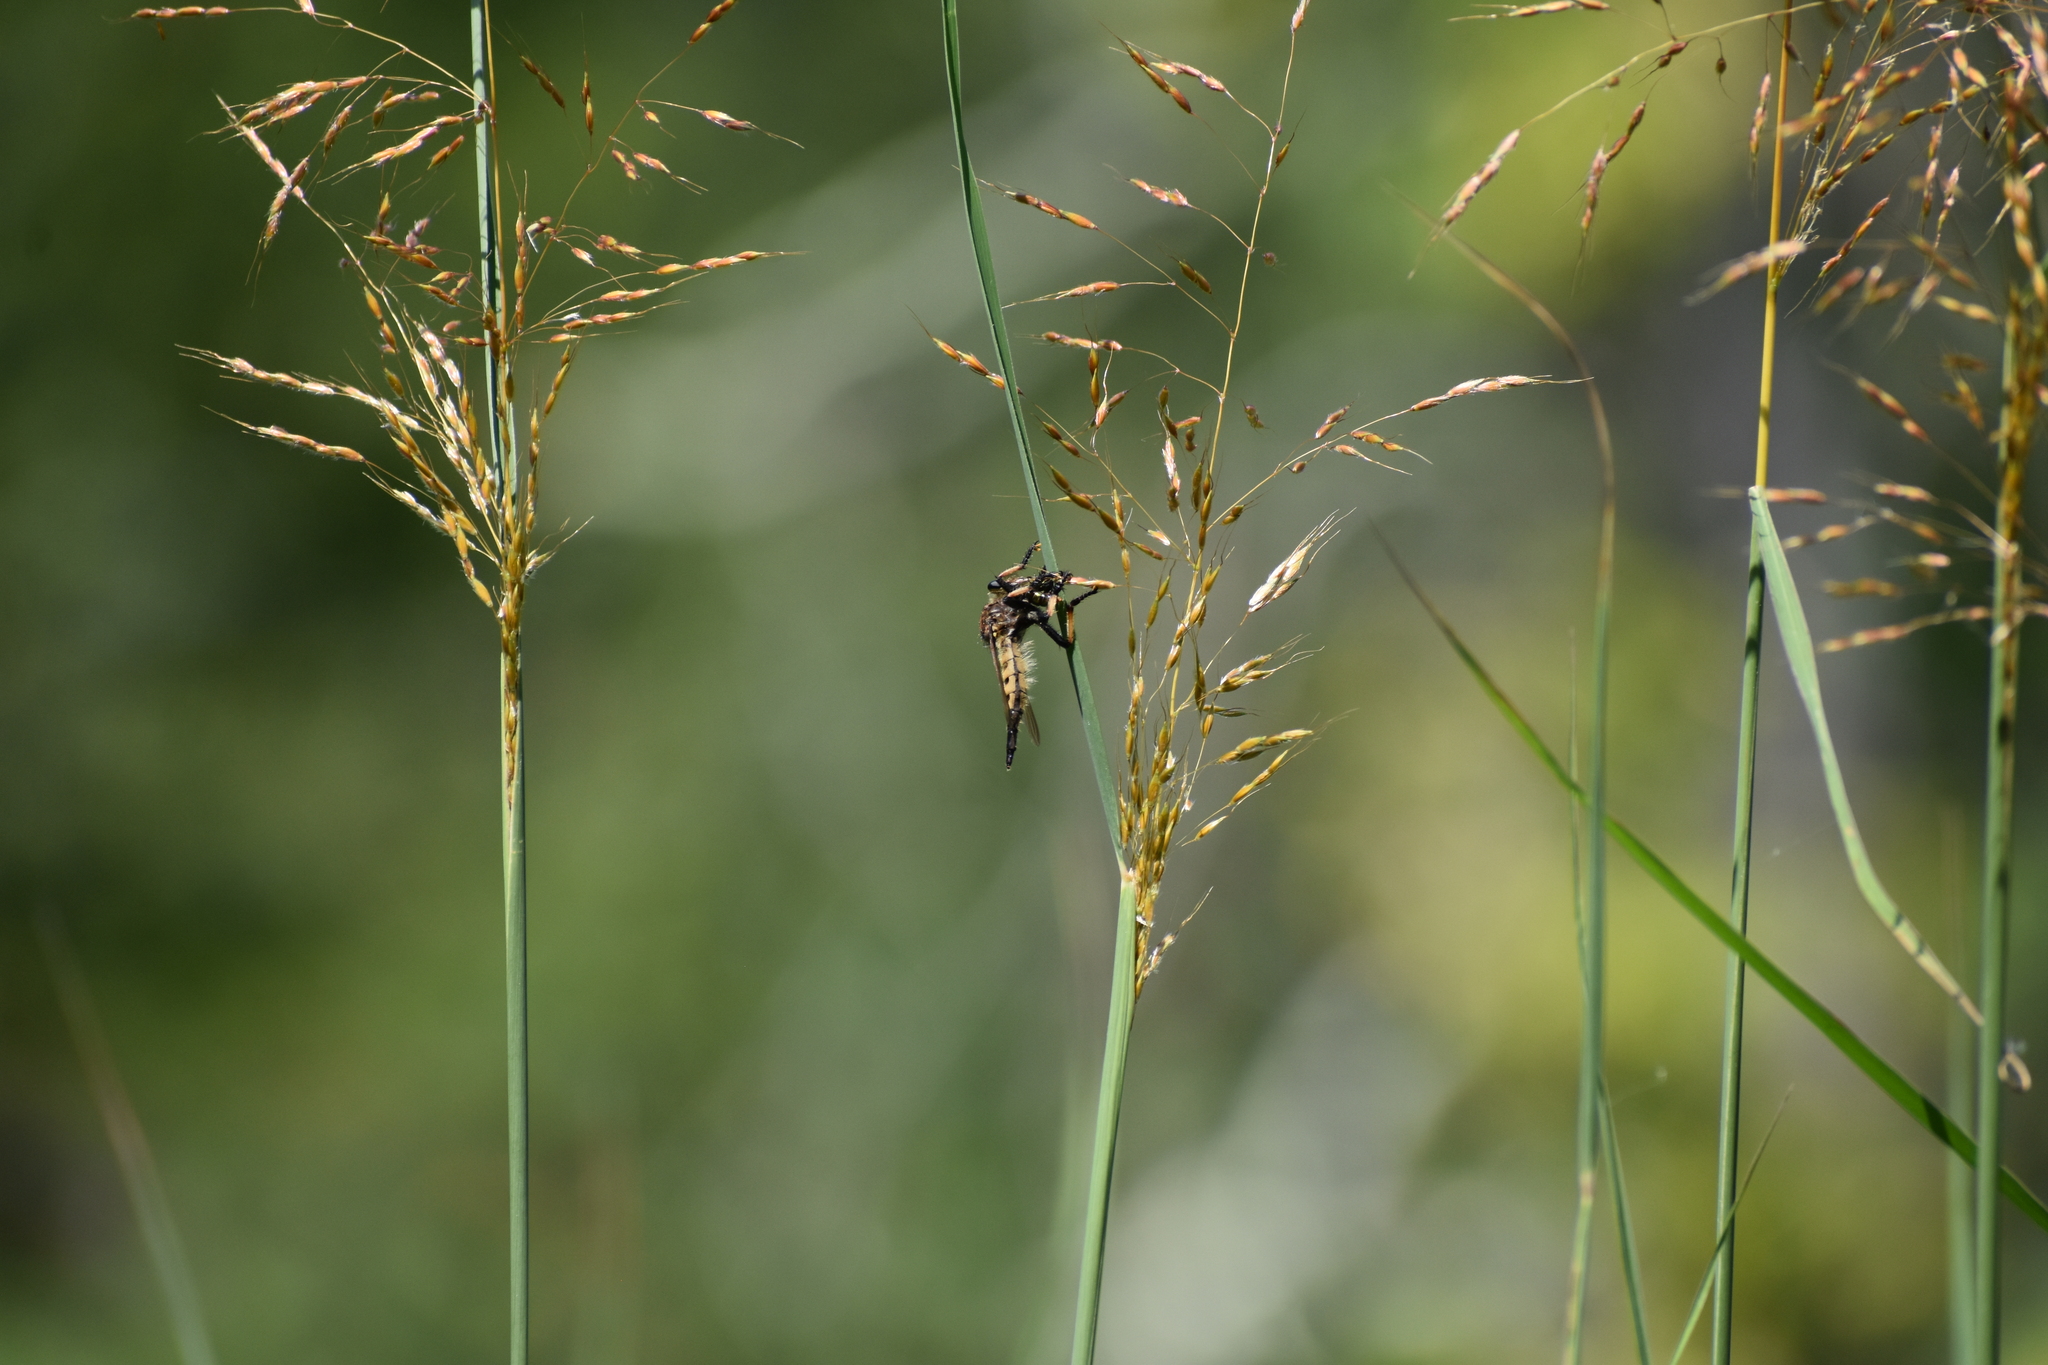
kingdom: Animalia
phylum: Arthropoda
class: Insecta
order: Diptera
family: Asilidae
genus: Promachus
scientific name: Promachus rufipes
